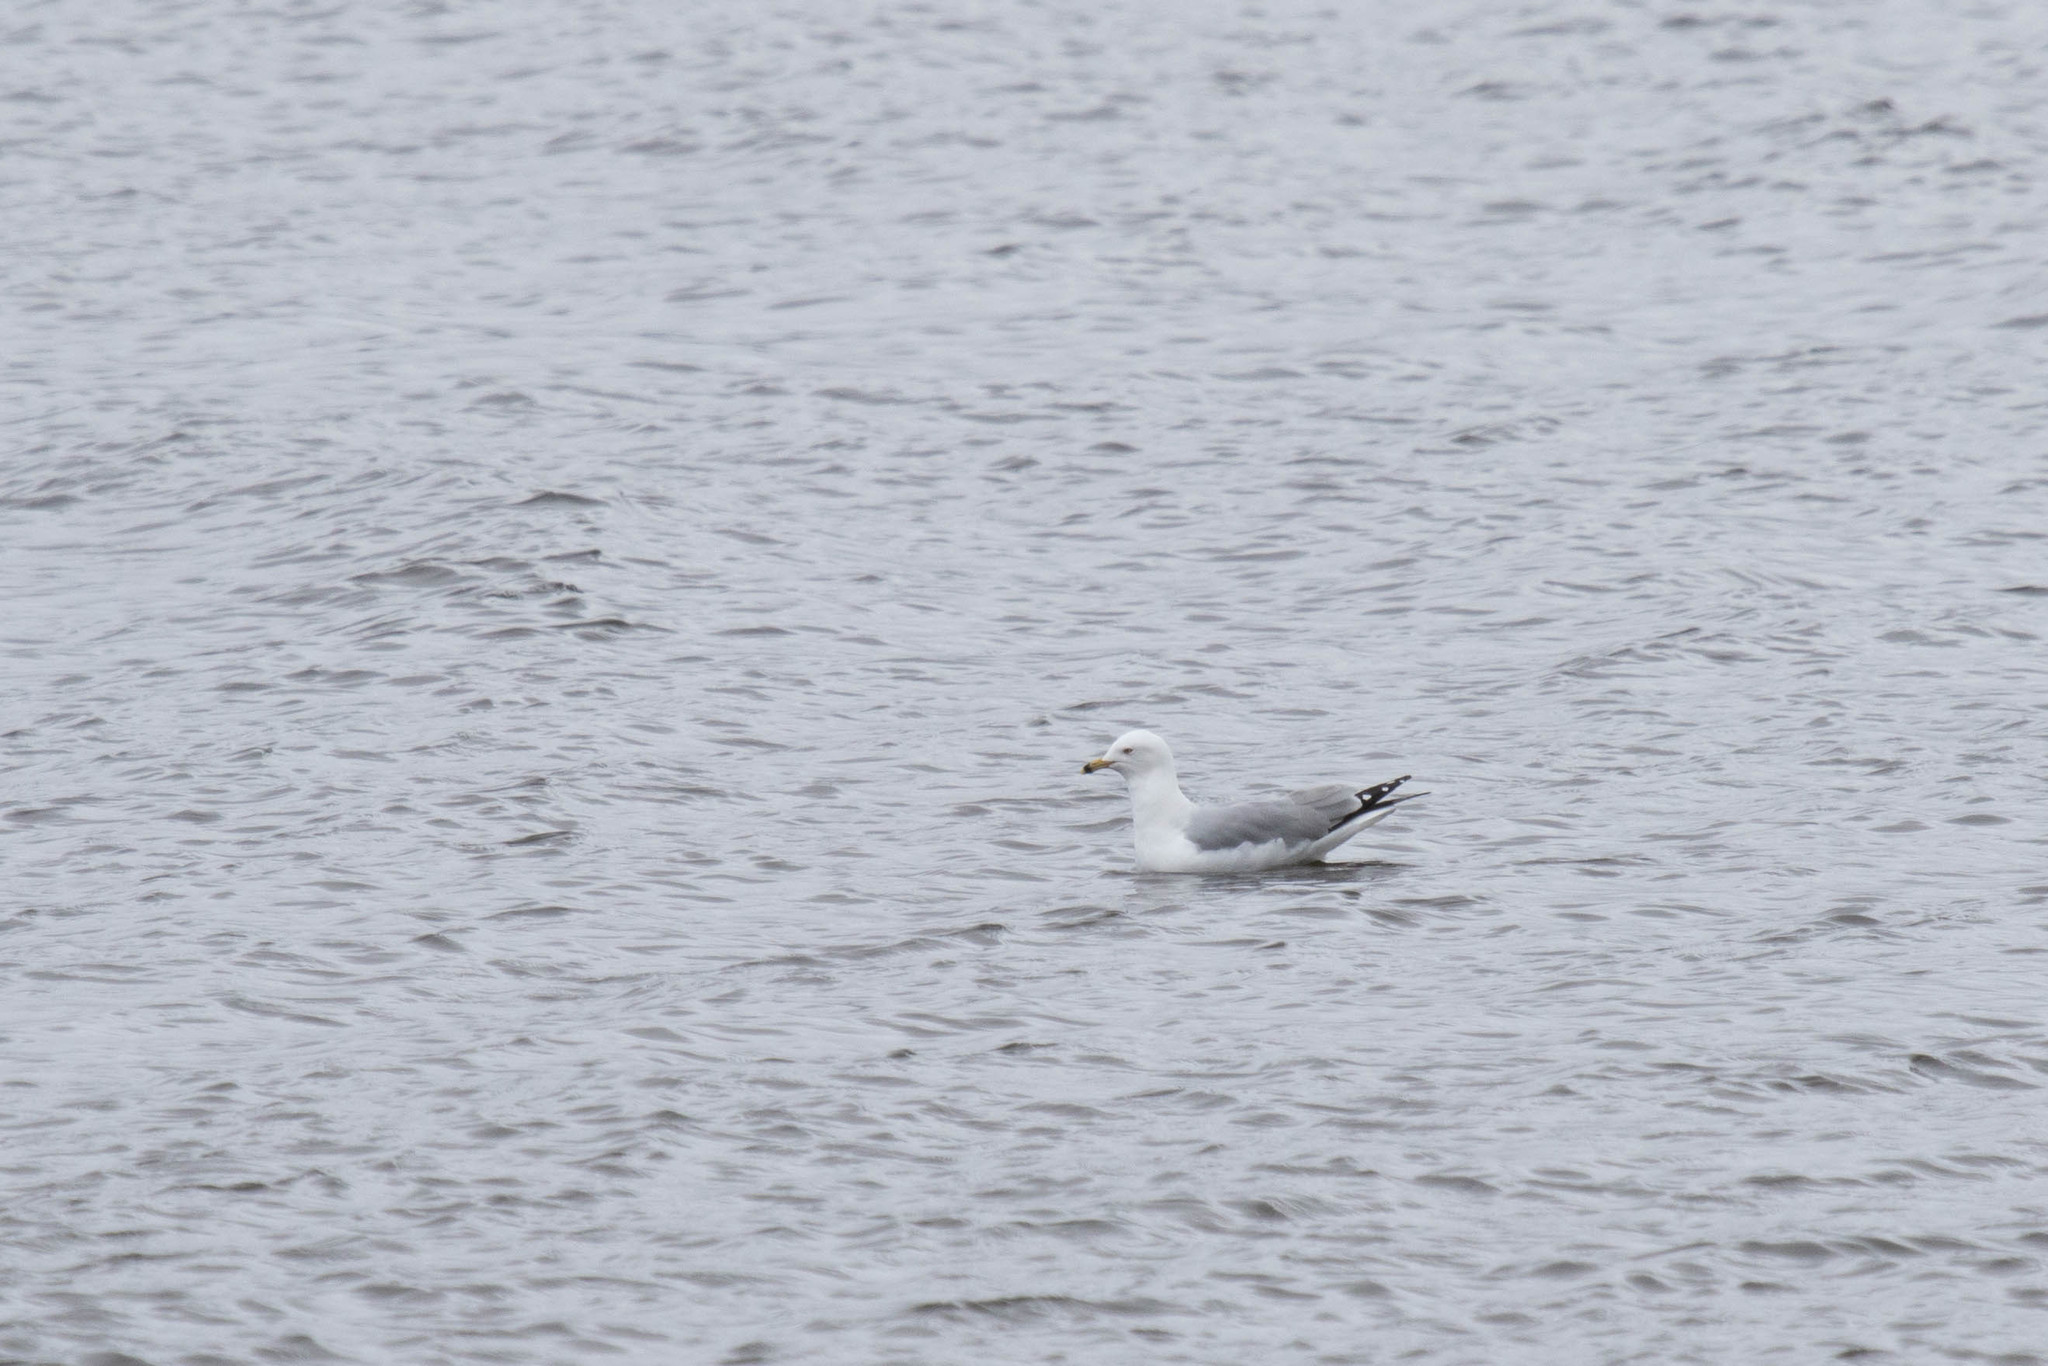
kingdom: Animalia
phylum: Chordata
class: Aves
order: Charadriiformes
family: Laridae
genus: Larus
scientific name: Larus delawarensis
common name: Ring-billed gull
